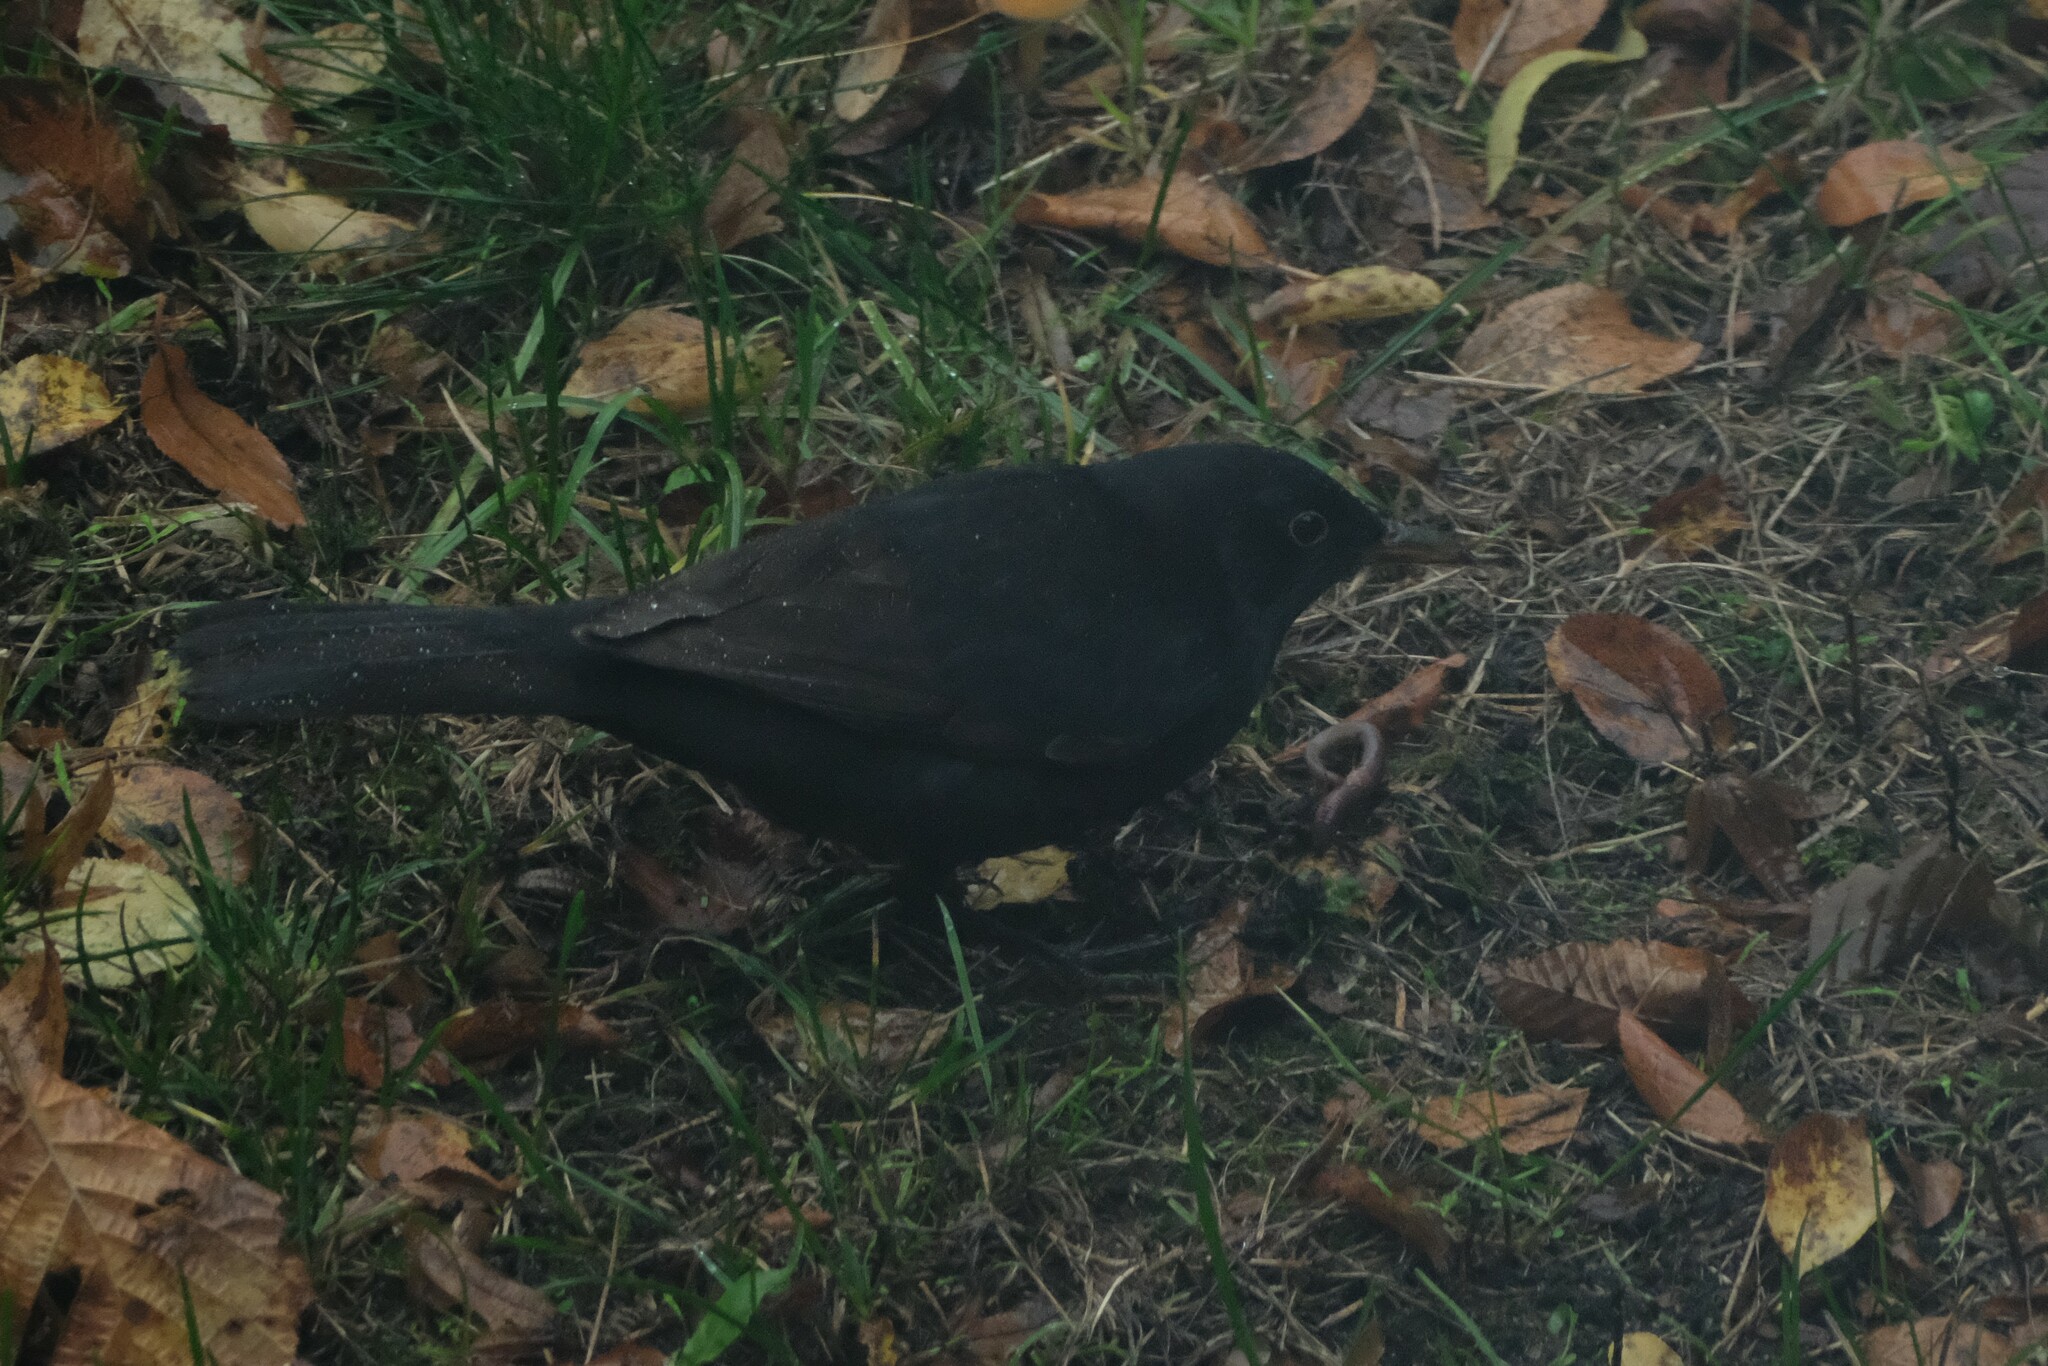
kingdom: Animalia
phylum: Chordata
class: Aves
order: Passeriformes
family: Turdidae
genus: Turdus
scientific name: Turdus merula
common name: Common blackbird
